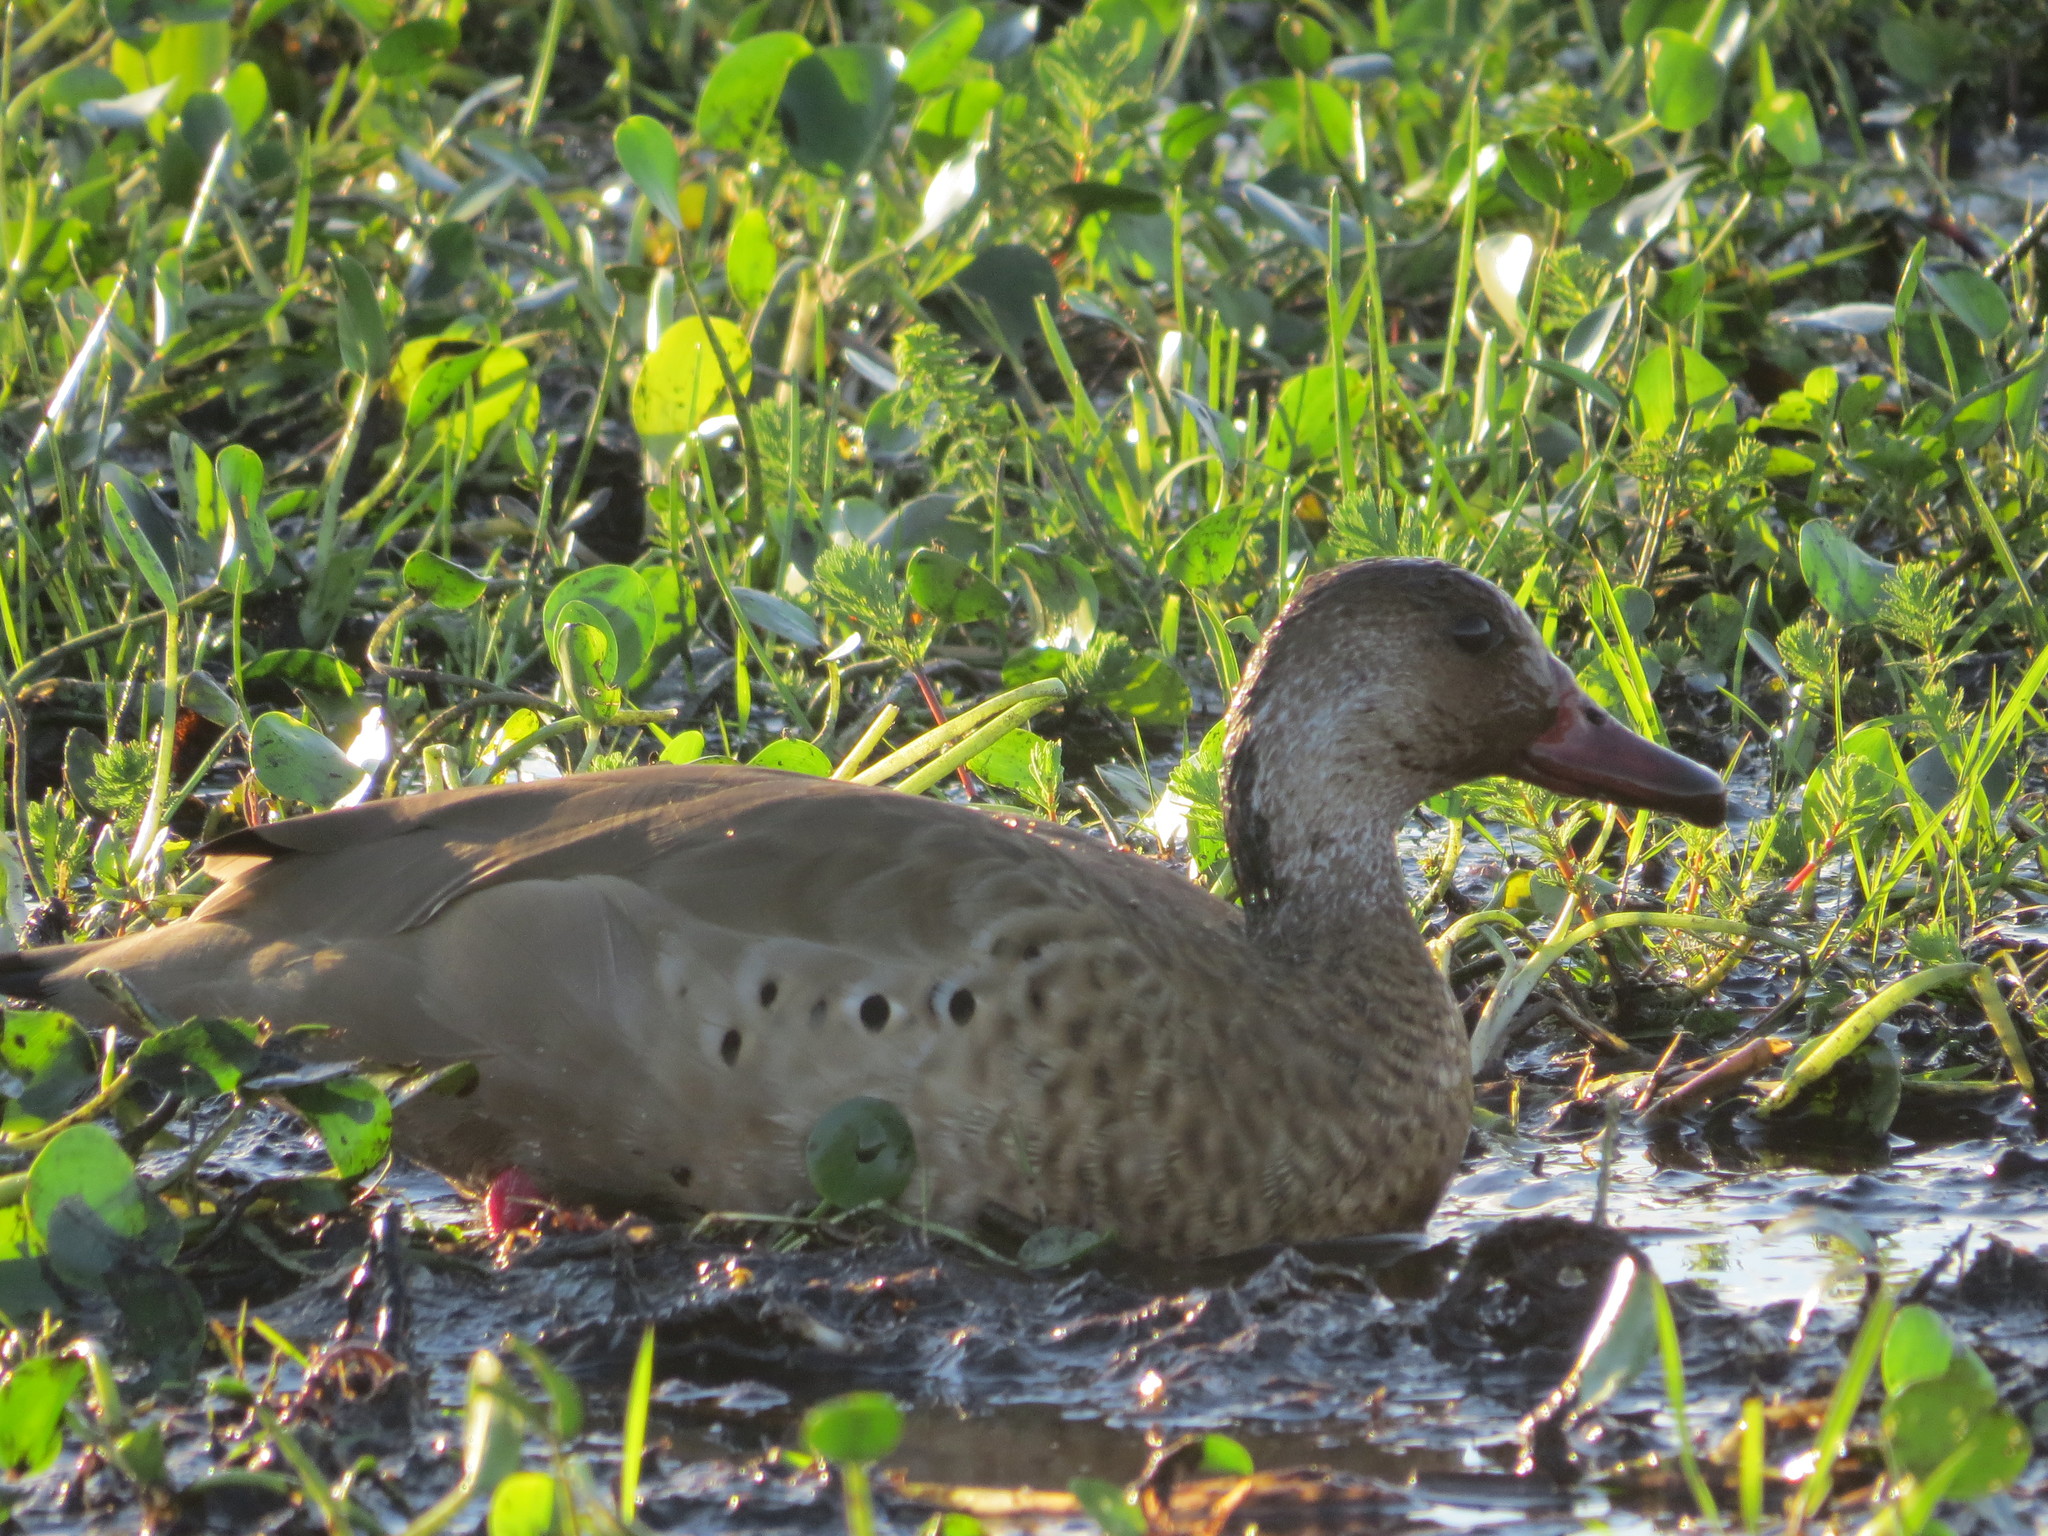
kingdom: Animalia
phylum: Chordata
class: Aves
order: Anseriformes
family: Anatidae
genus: Amazonetta
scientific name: Amazonetta brasiliensis
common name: Brazilian teal
